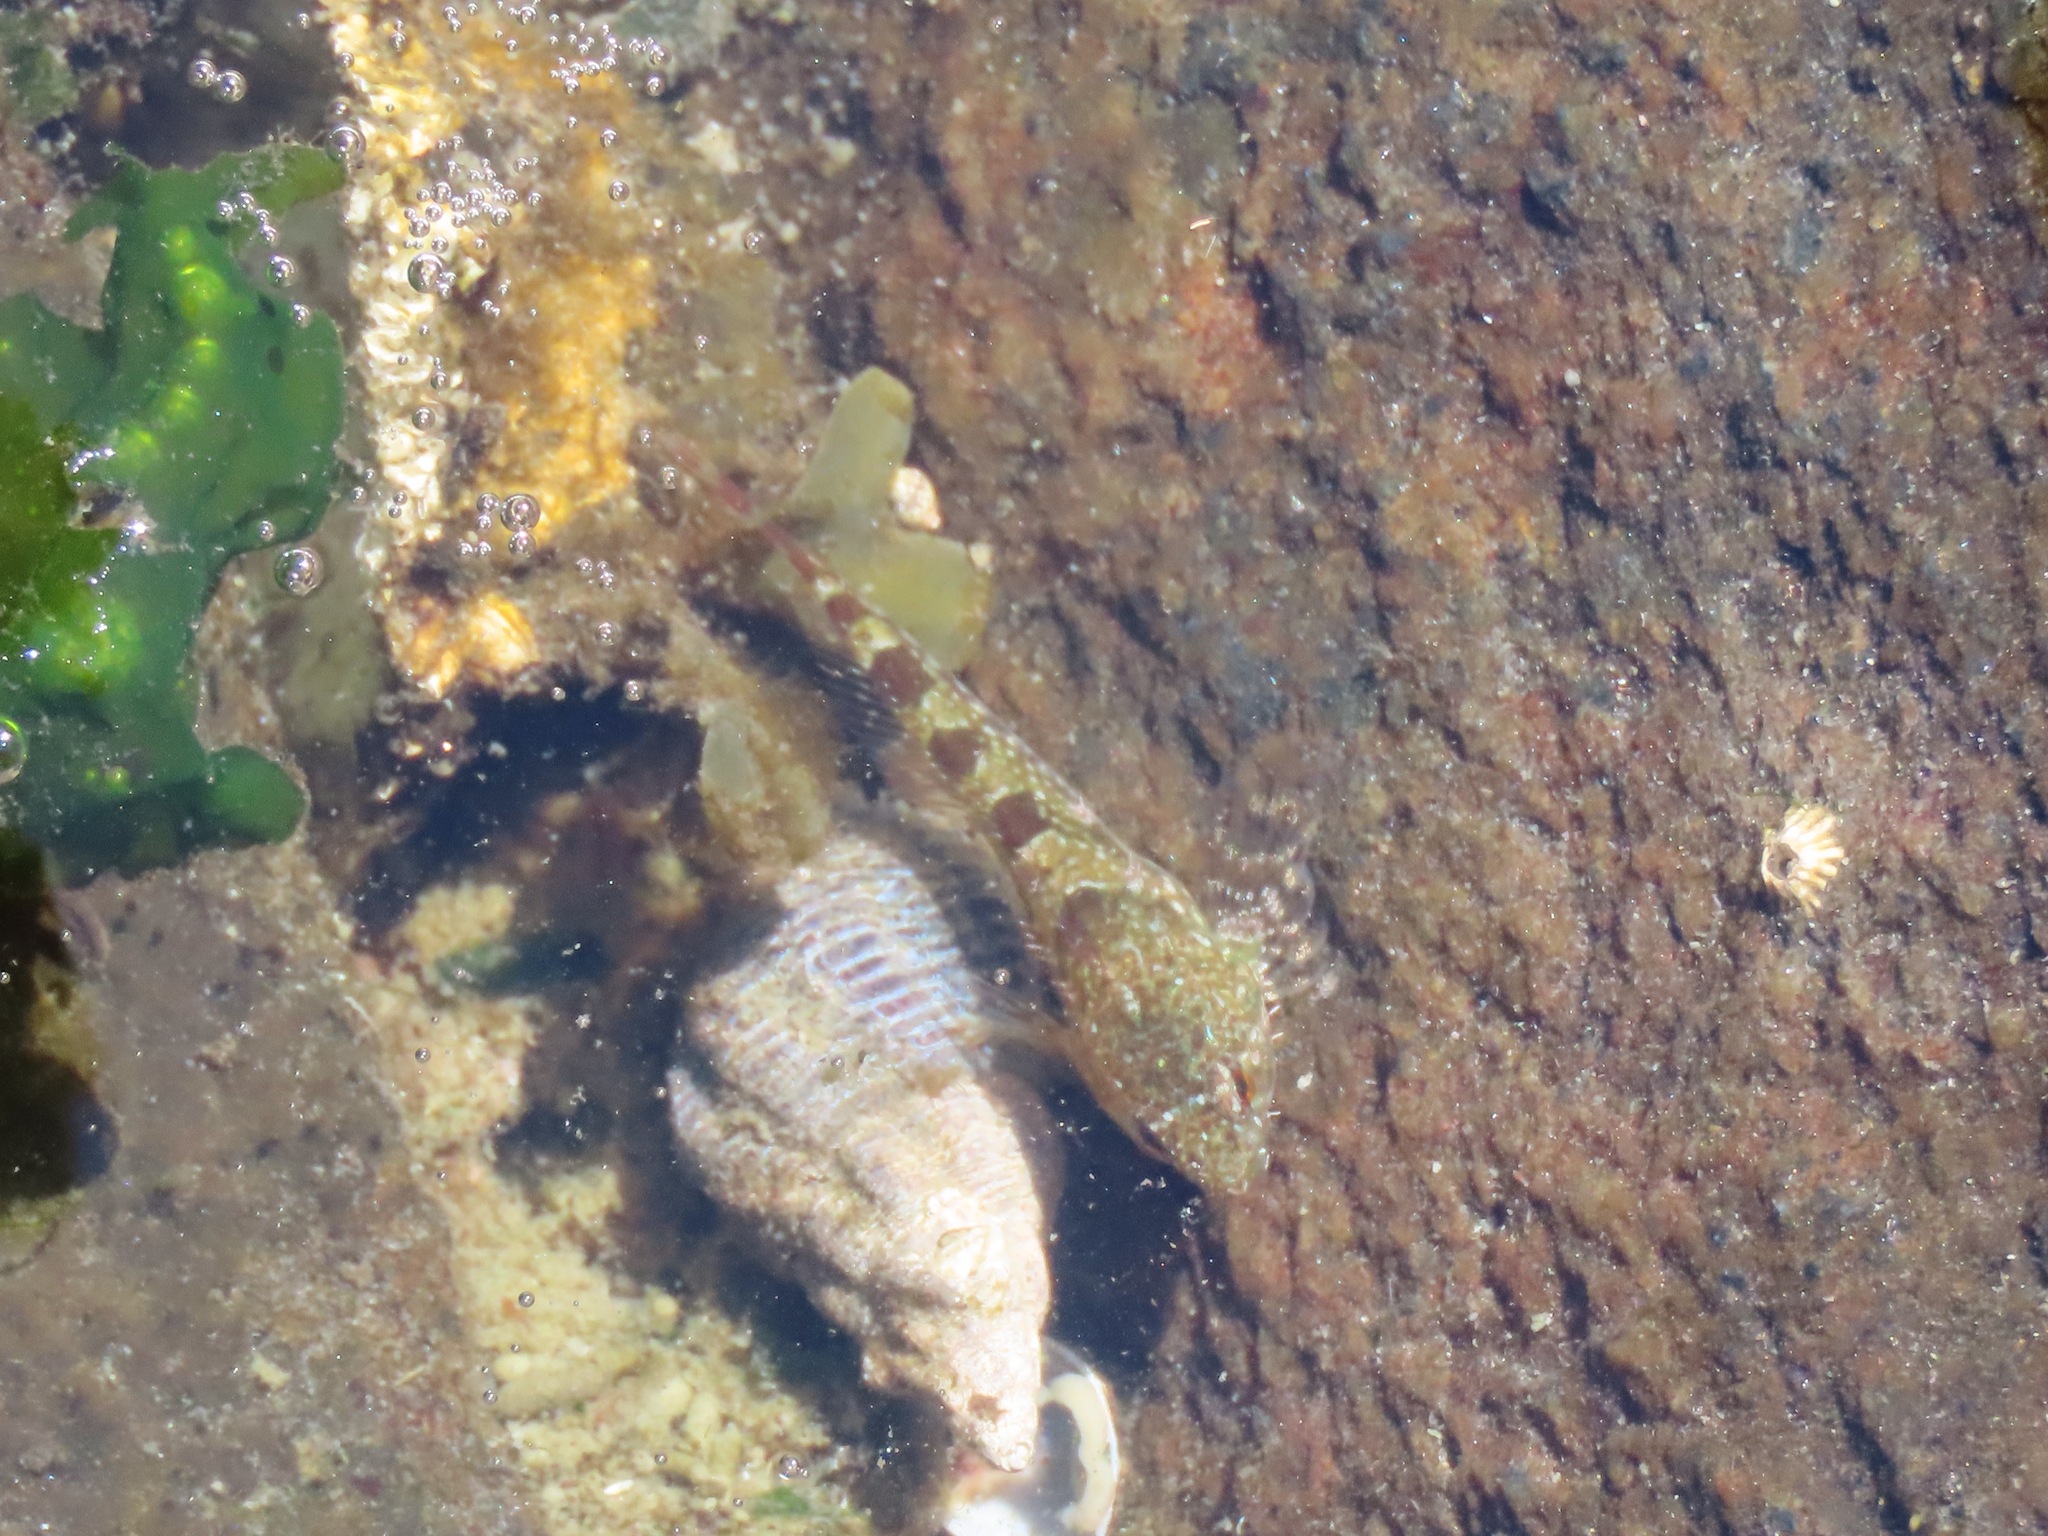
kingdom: Animalia
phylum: Chordata
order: Scorpaeniformes
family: Cottidae
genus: Oligocottus
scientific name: Oligocottus maculosus
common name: Tidepool sculpin
